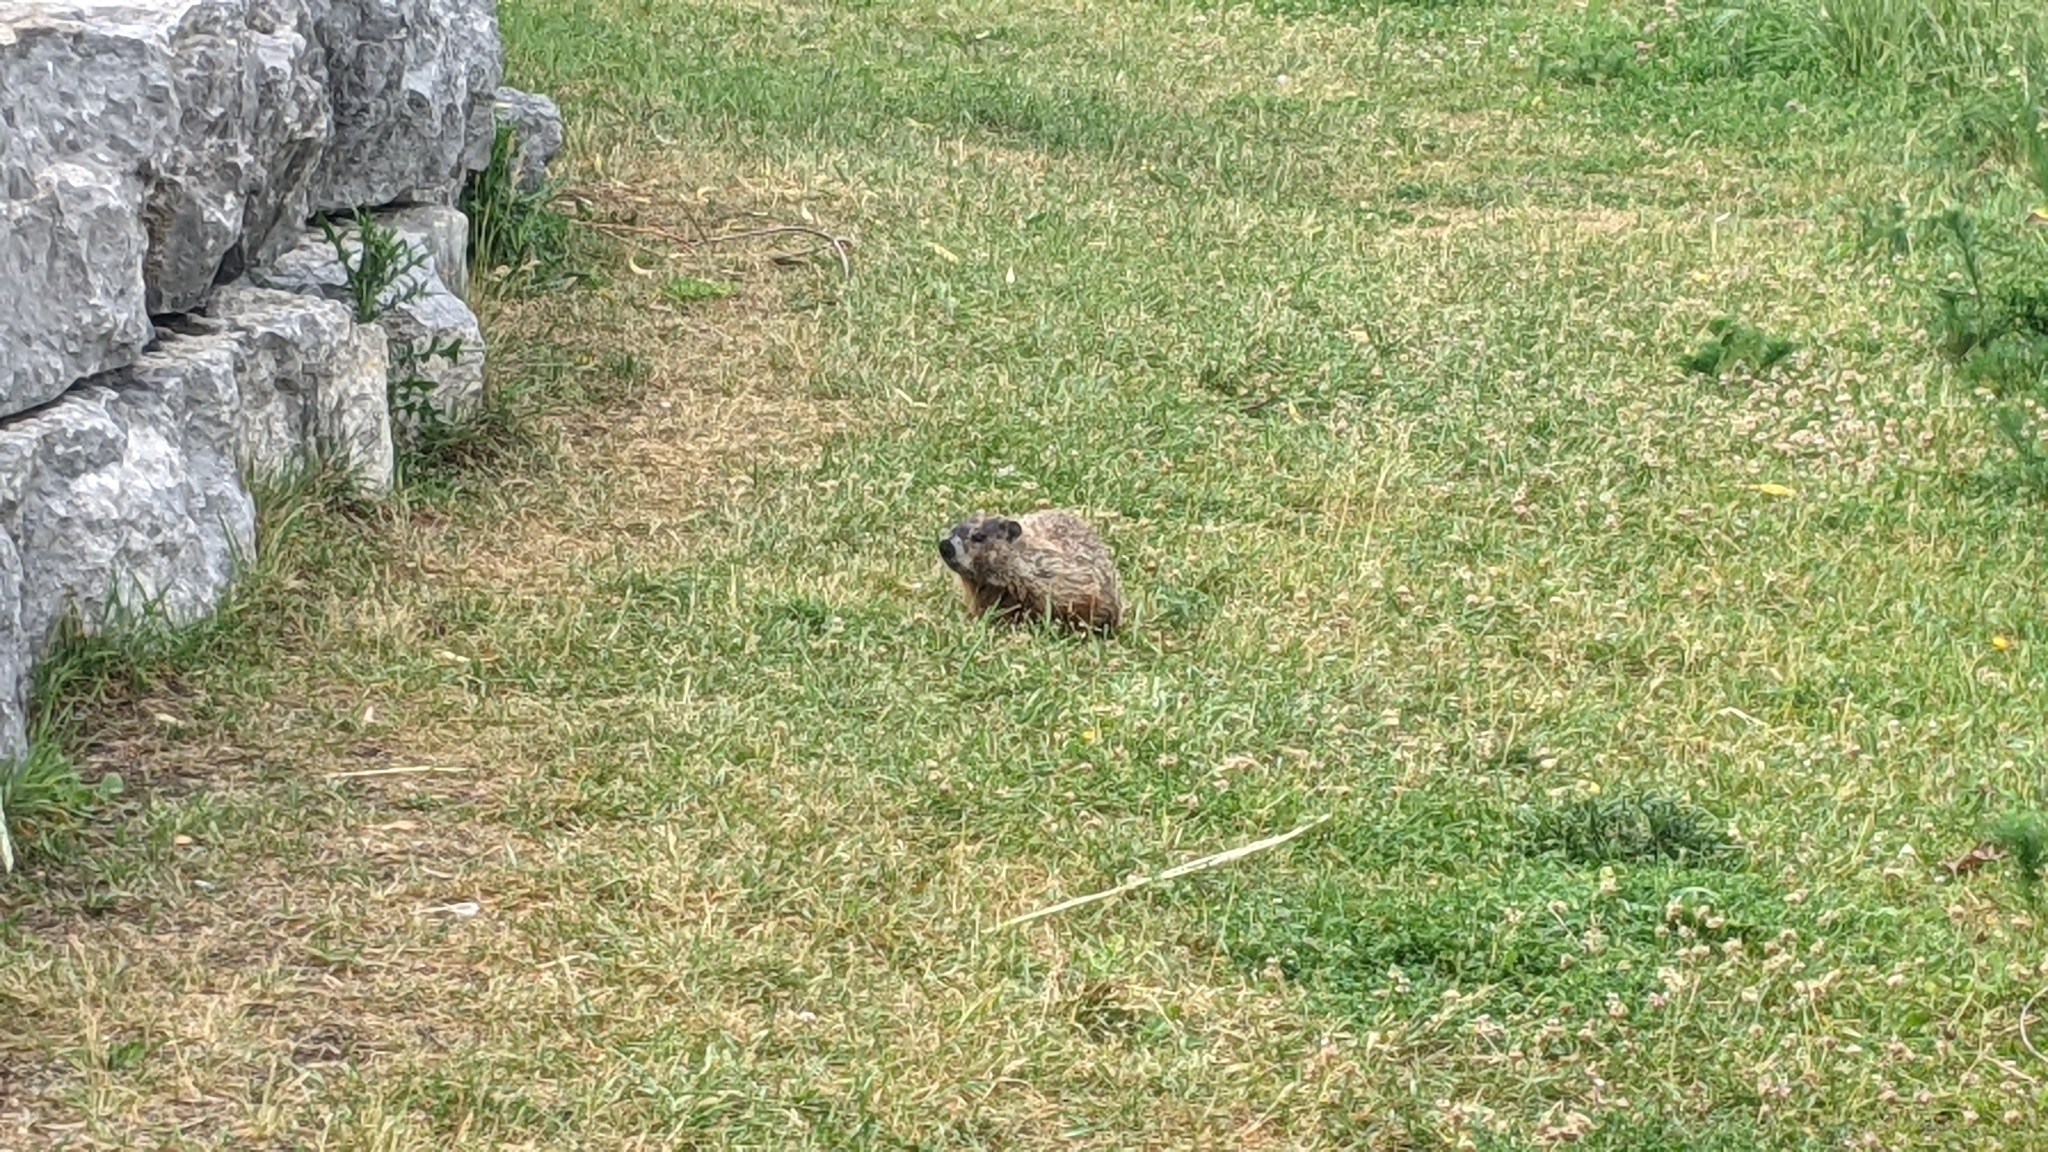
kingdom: Animalia
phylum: Chordata
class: Mammalia
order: Rodentia
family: Sciuridae
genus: Marmota
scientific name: Marmota monax
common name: Groundhog
